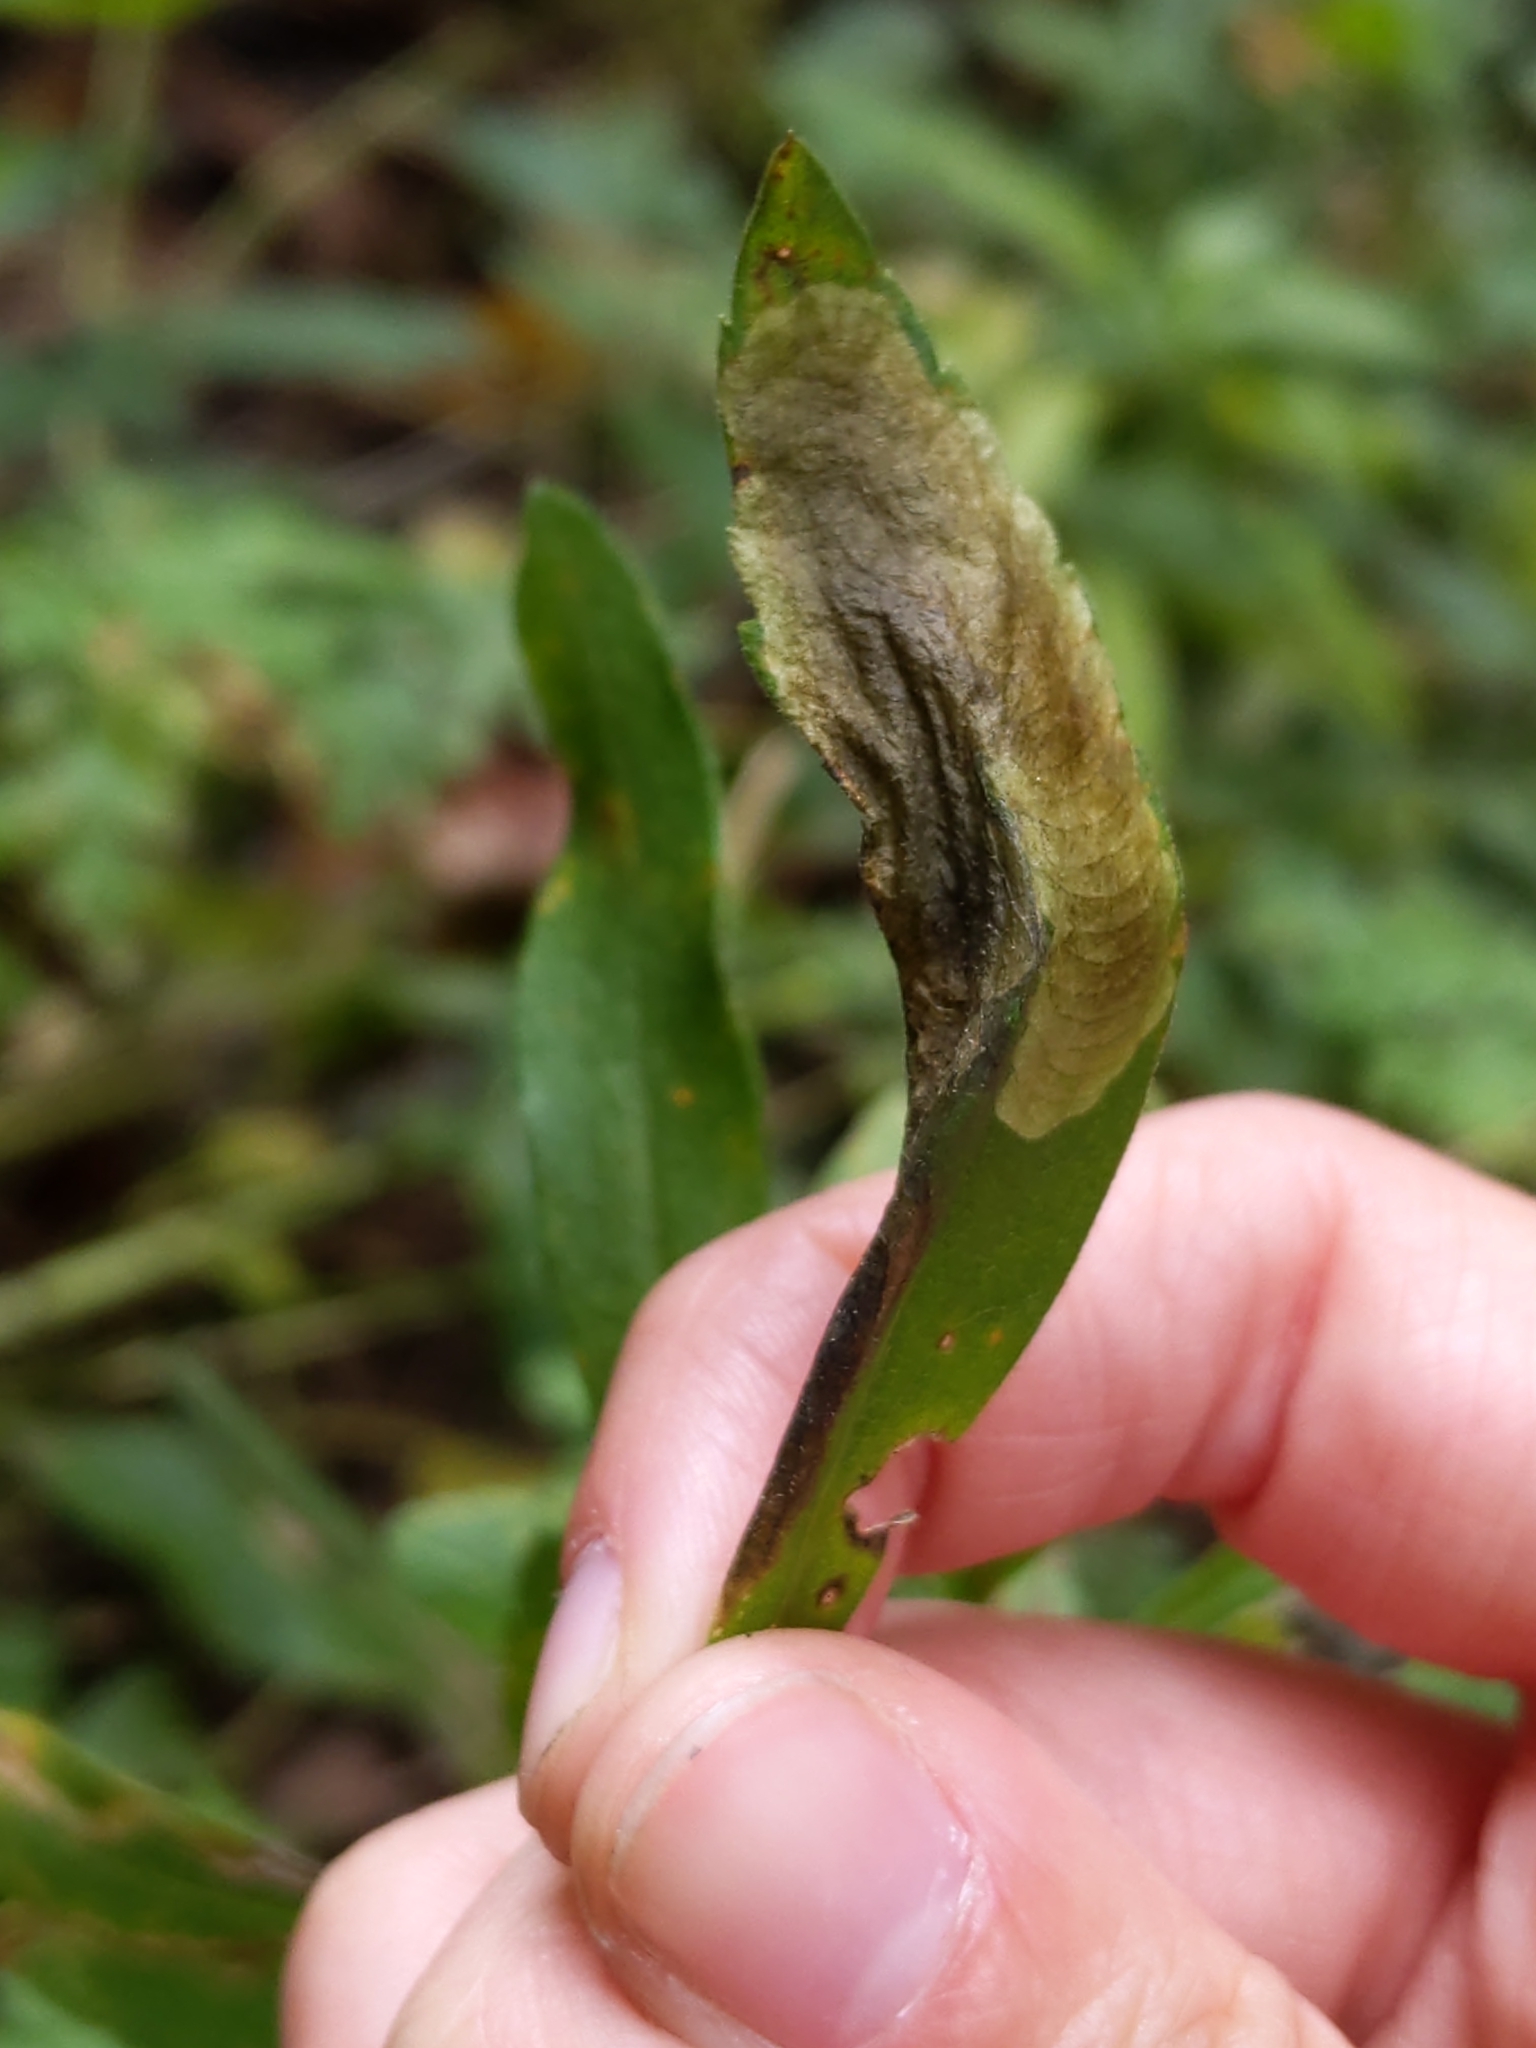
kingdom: Animalia
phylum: Arthropoda
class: Insecta
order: Diptera
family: Agromyzidae
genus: Nemorimyza
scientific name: Nemorimyza posticata
